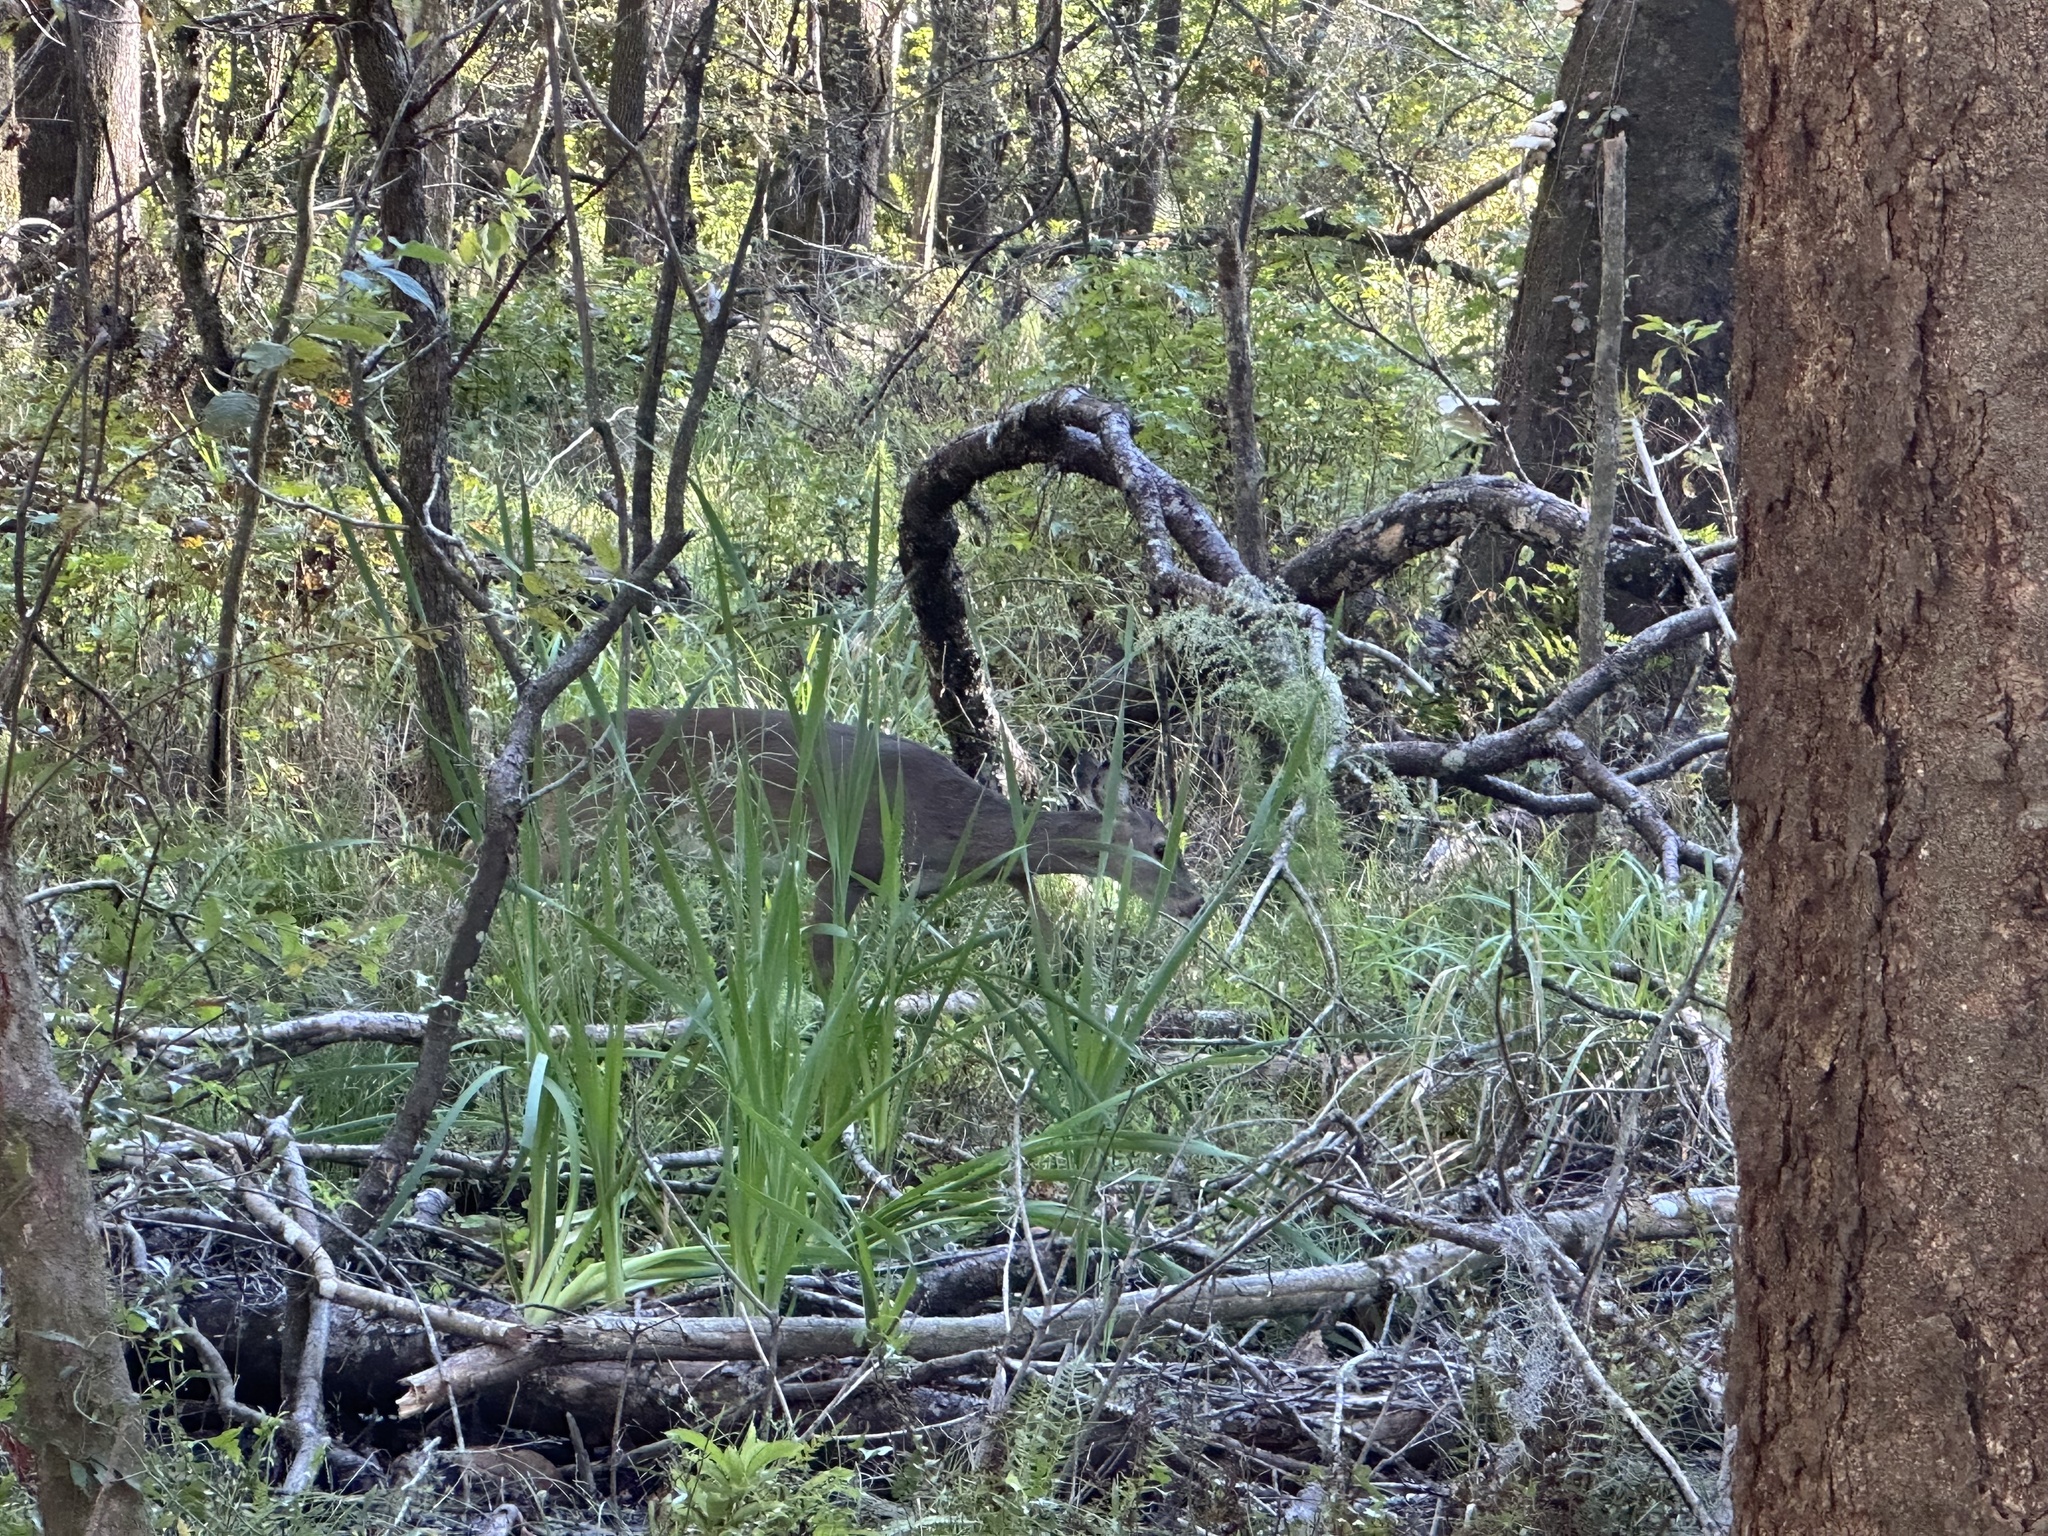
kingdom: Animalia
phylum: Chordata
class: Mammalia
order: Artiodactyla
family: Cervidae
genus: Odocoileus
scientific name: Odocoileus virginianus
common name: White-tailed deer
